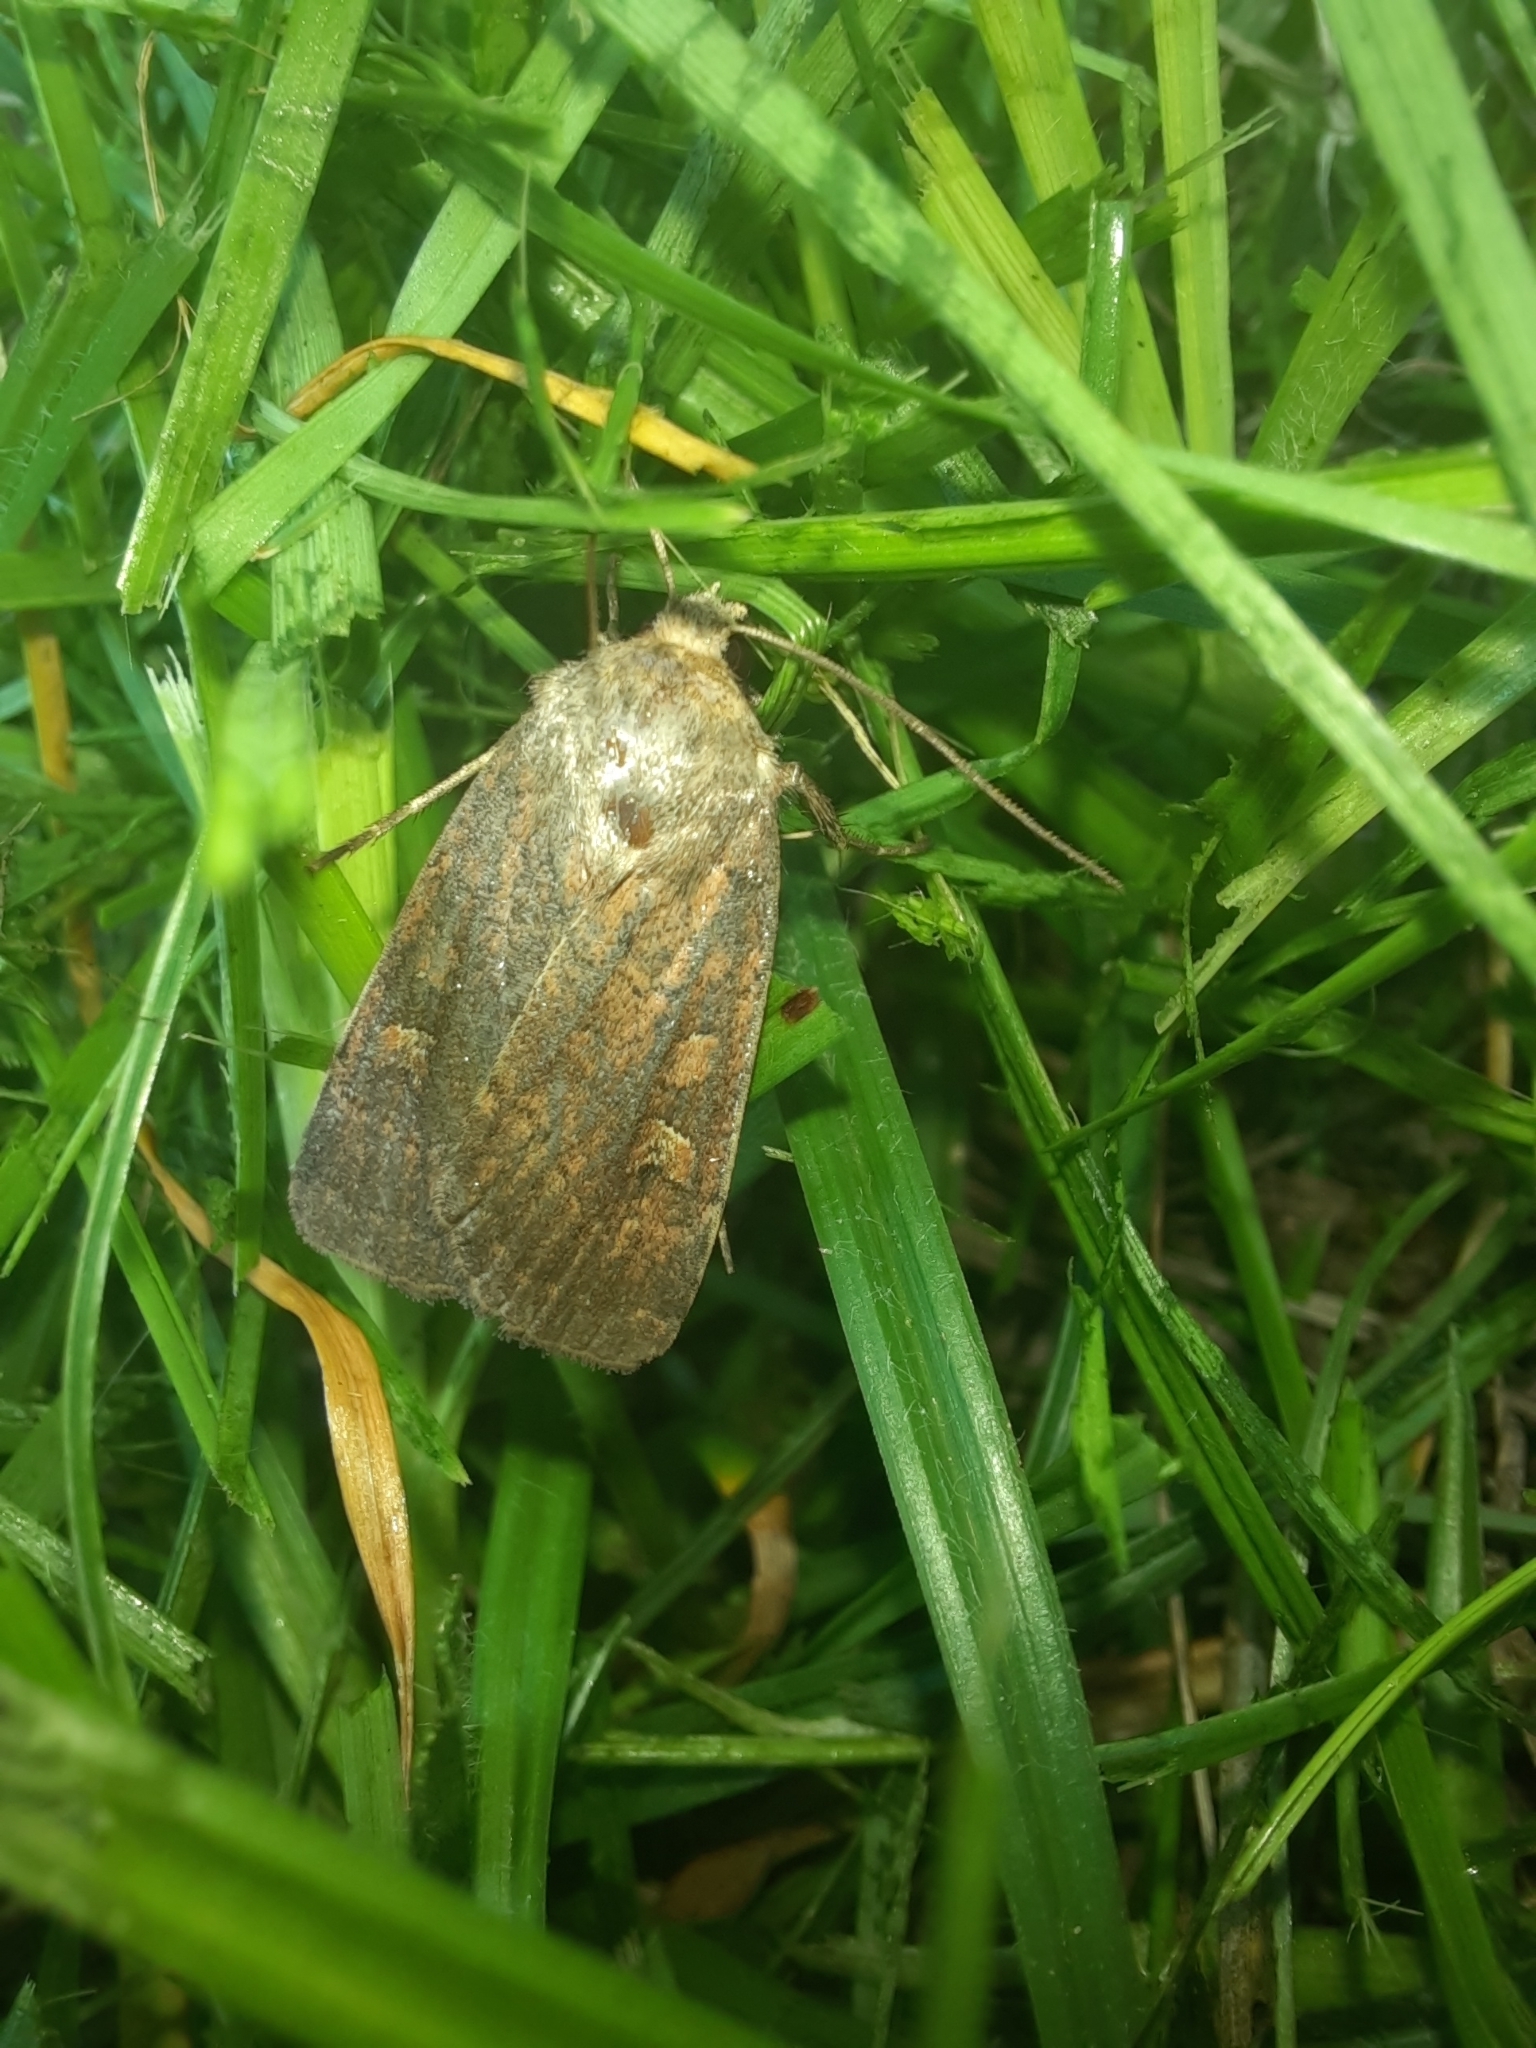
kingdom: Animalia
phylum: Arthropoda
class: Insecta
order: Lepidoptera
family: Noctuidae
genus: Xestia
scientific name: Xestia xanthographa
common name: Square-spot rustic
